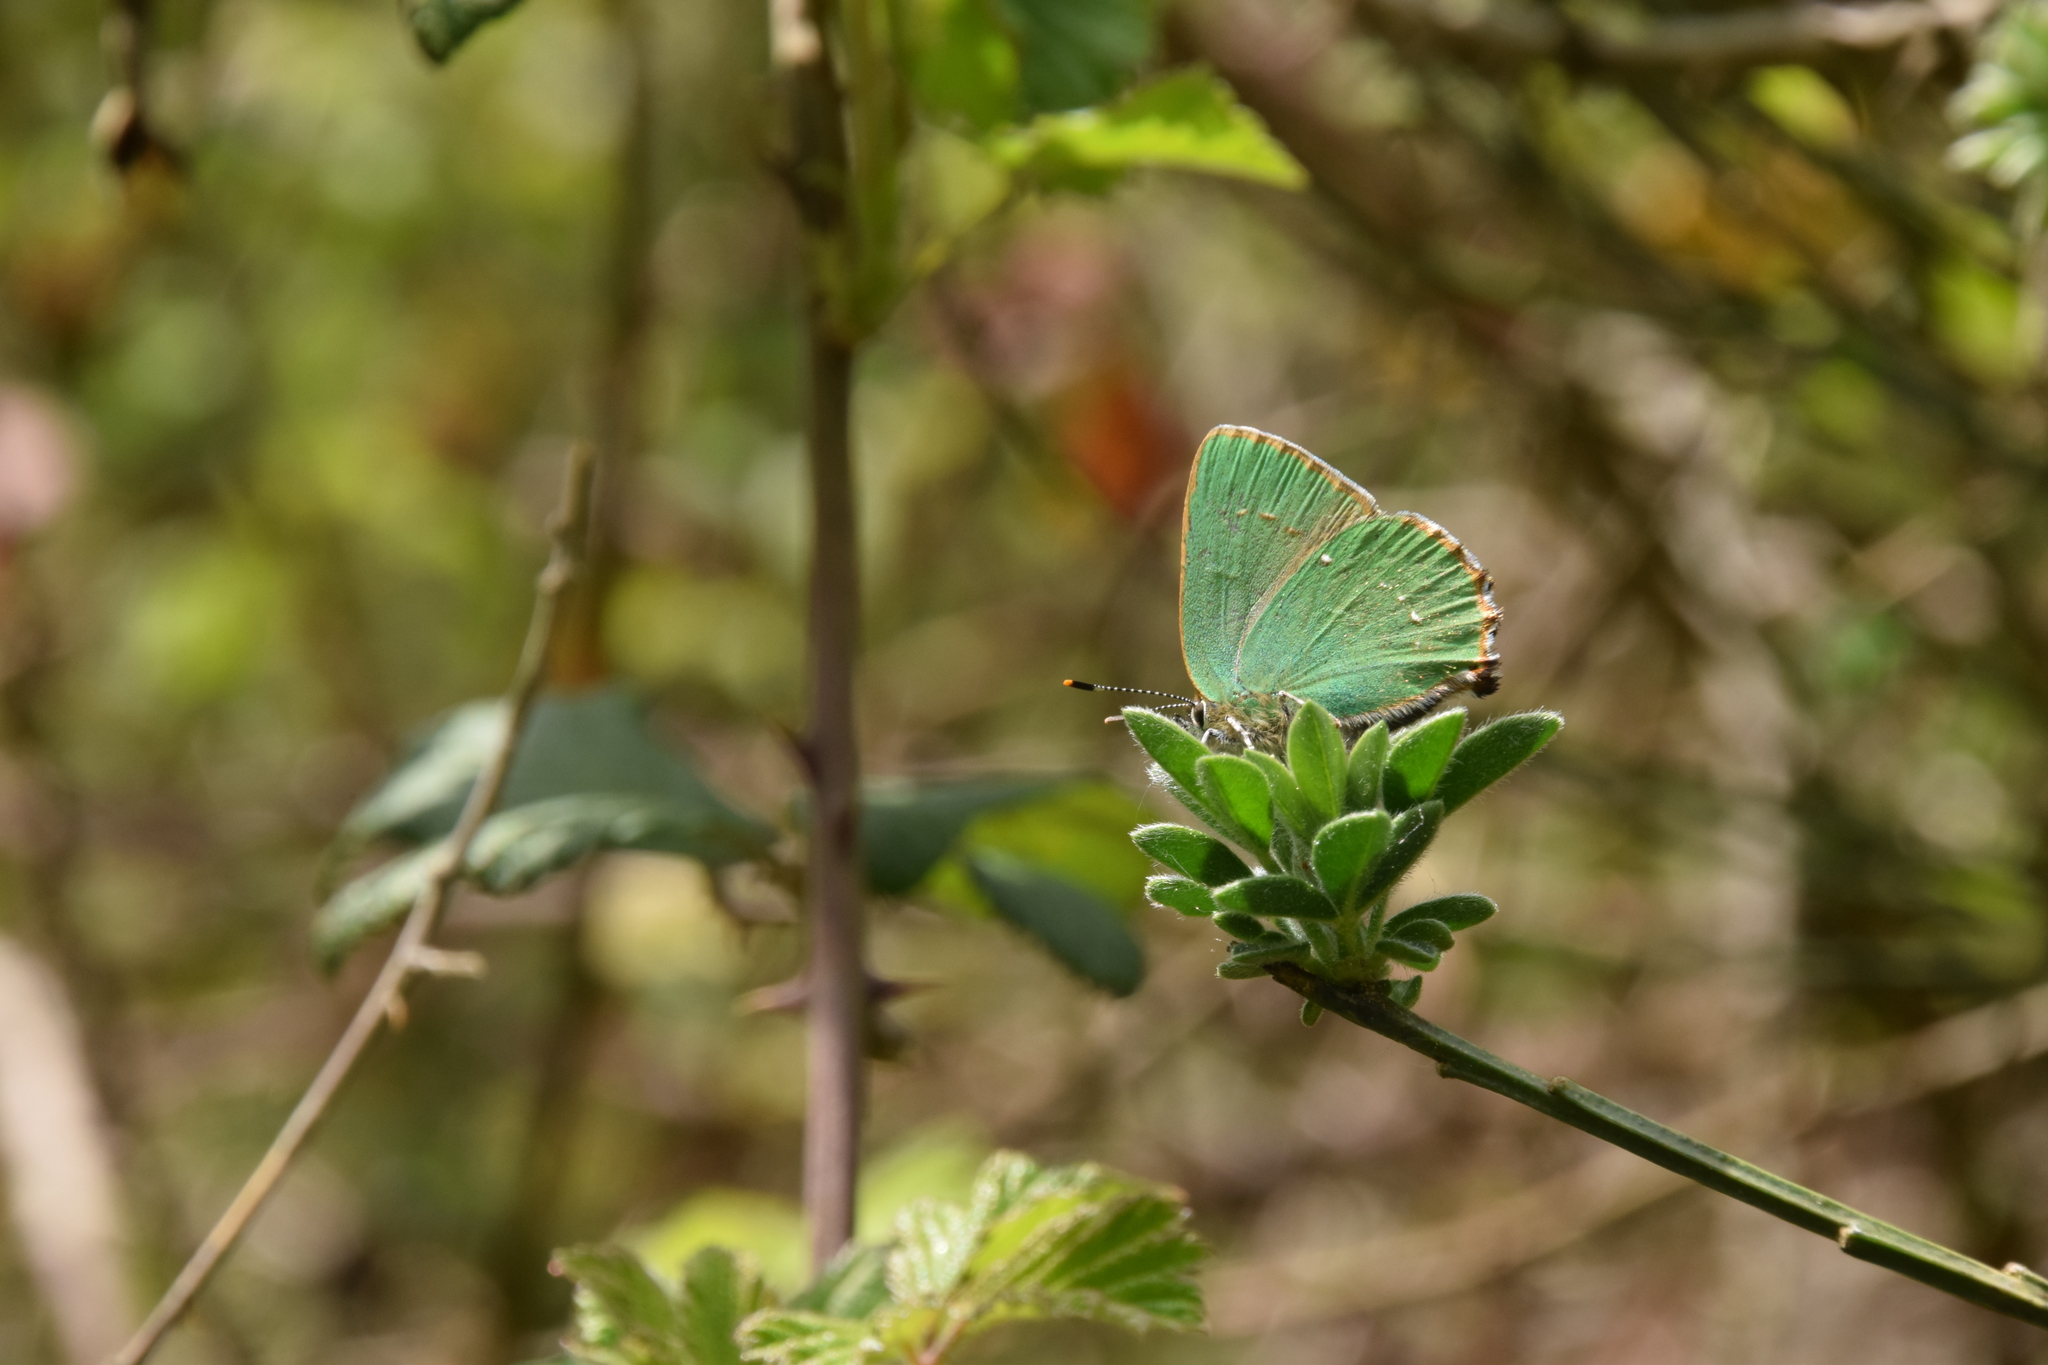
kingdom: Animalia
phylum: Arthropoda
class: Insecta
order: Lepidoptera
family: Lycaenidae
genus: Callophrys
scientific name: Callophrys rubi
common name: Green hairstreak
